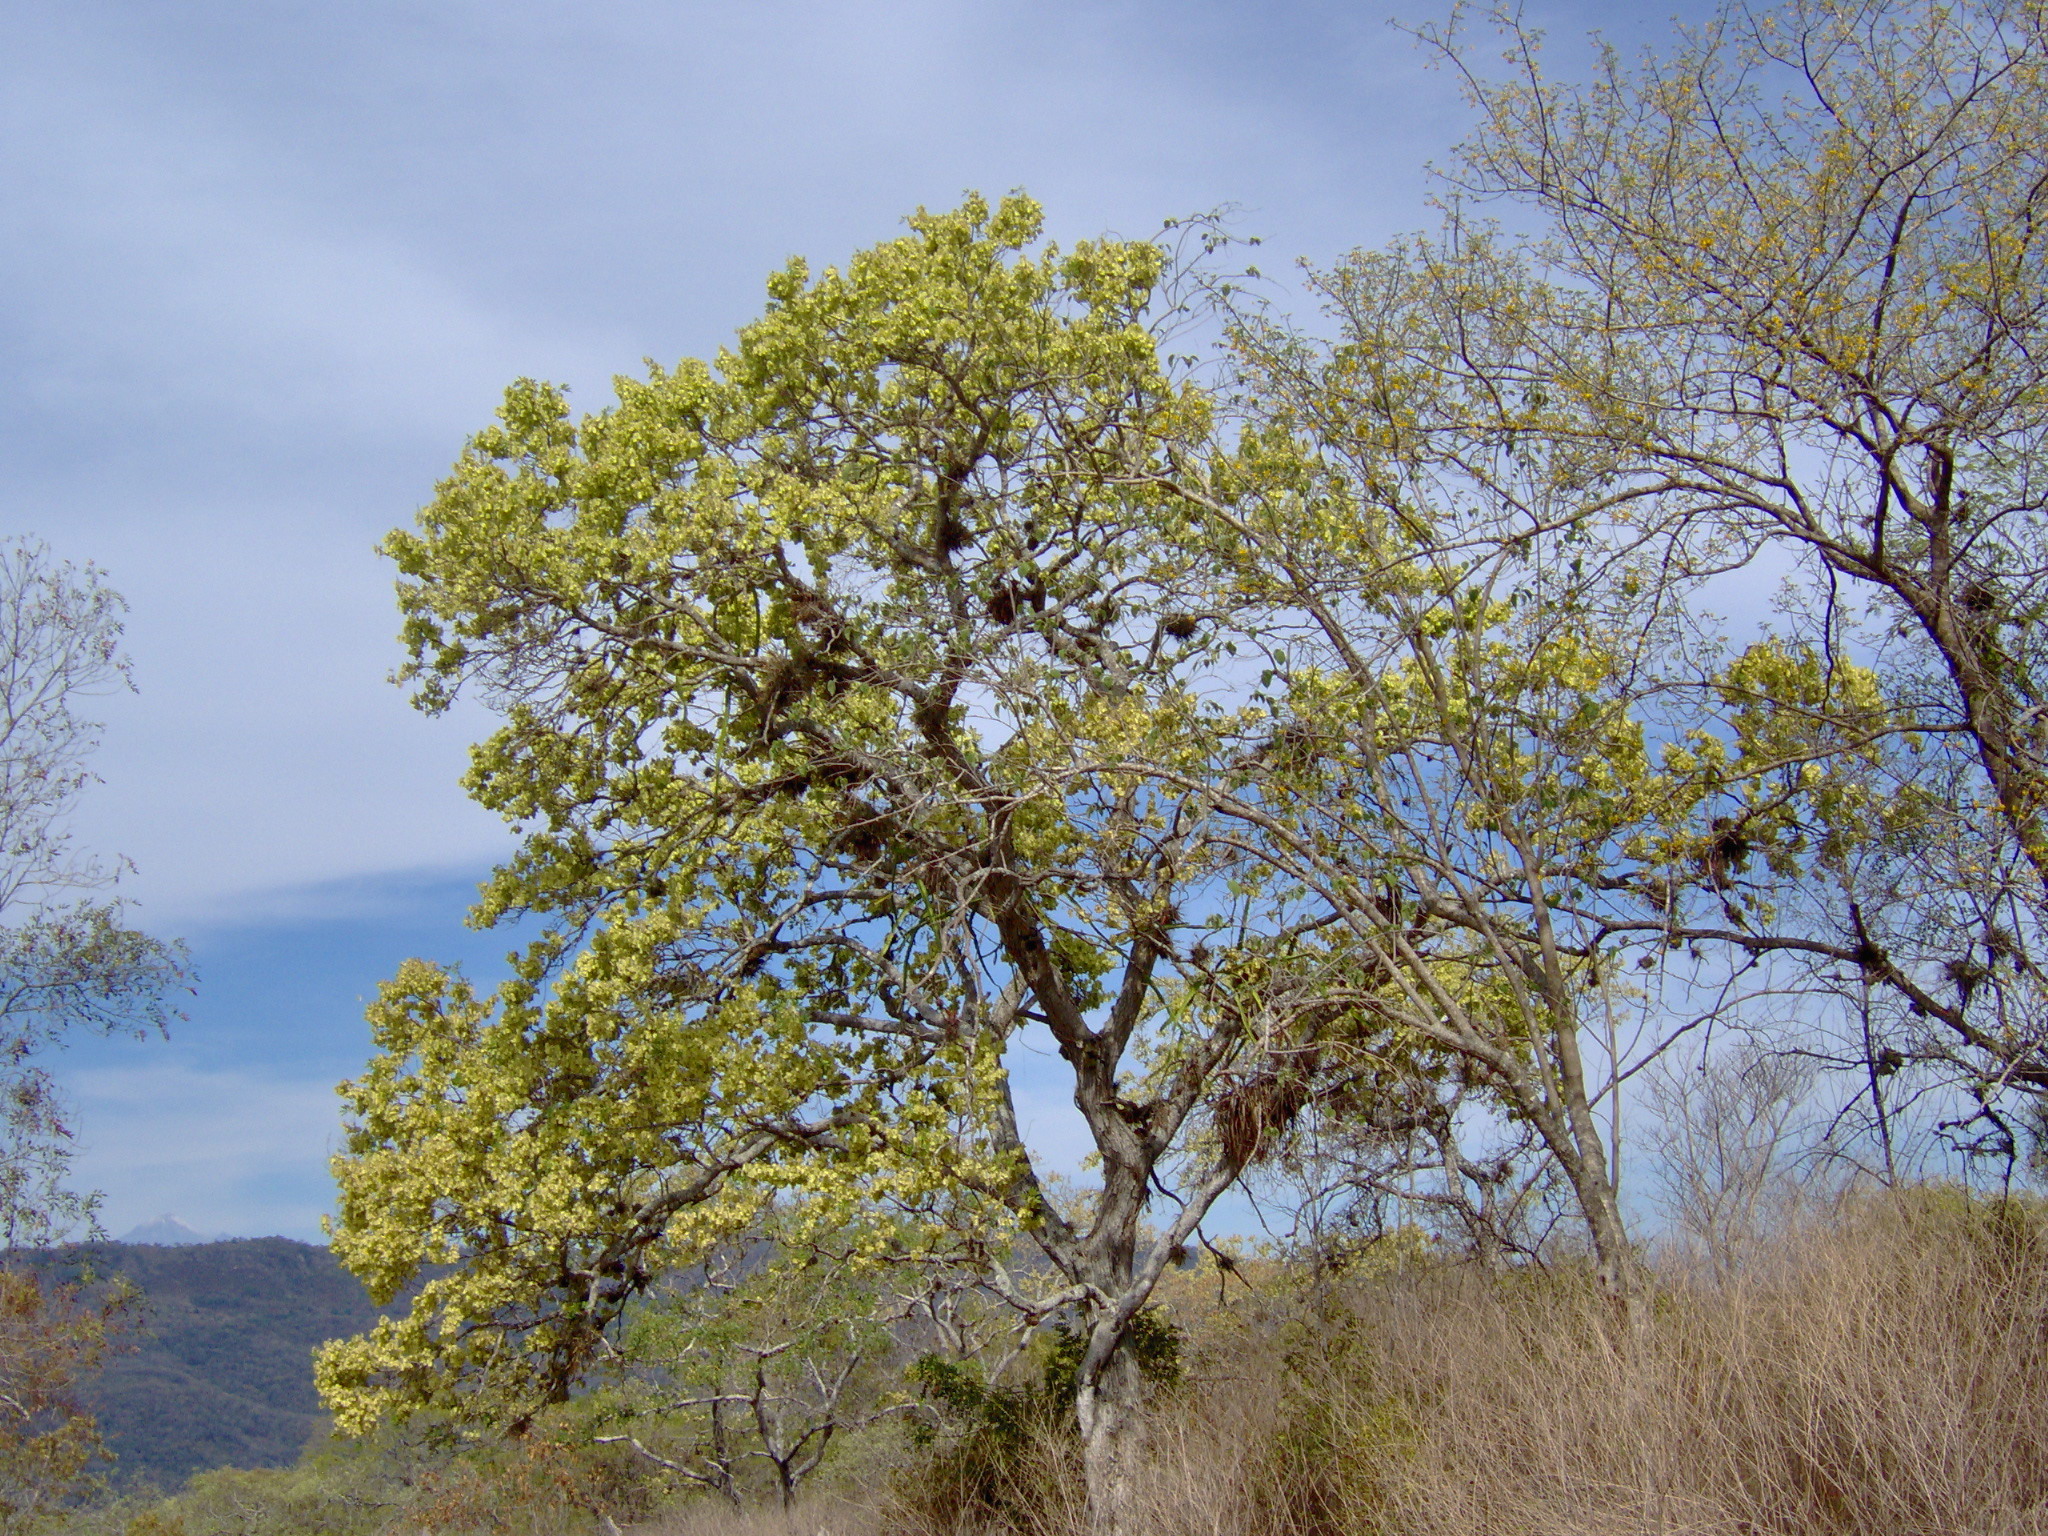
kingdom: Plantae
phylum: Tracheophyta
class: Magnoliopsida
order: Fabales
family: Fabaceae
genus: Piscidia
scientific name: Piscidia piscipula
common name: Florida fishpoison tree
